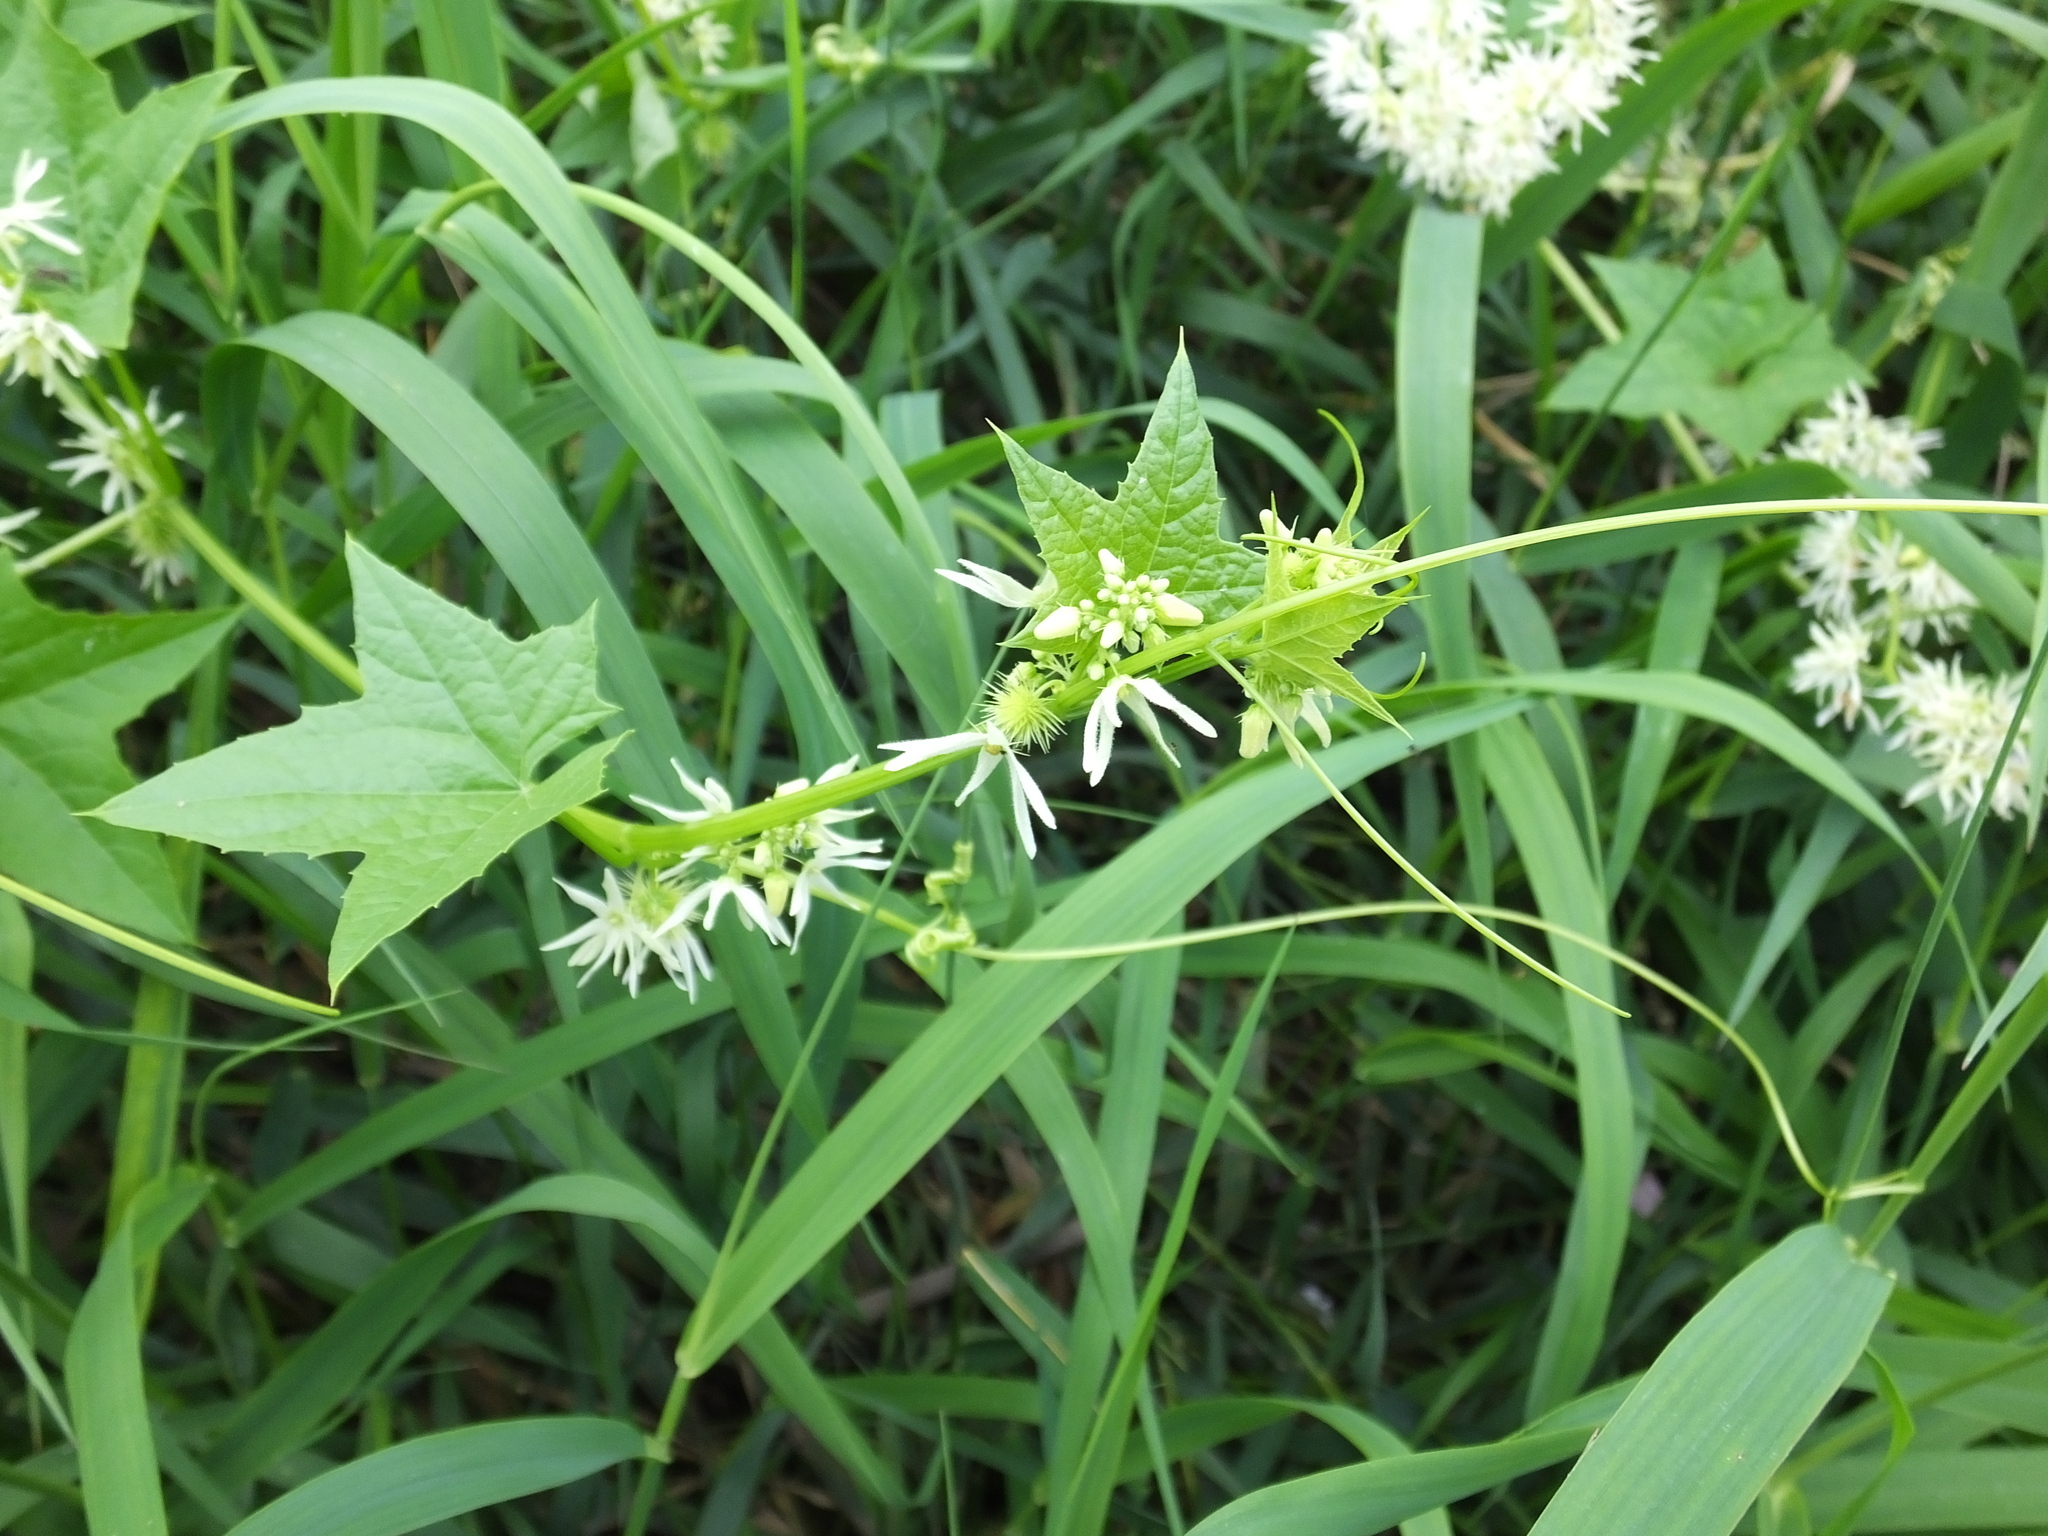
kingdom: Plantae
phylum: Tracheophyta
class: Magnoliopsida
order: Cucurbitales
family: Cucurbitaceae
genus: Echinocystis
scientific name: Echinocystis lobata
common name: Wild cucumber
